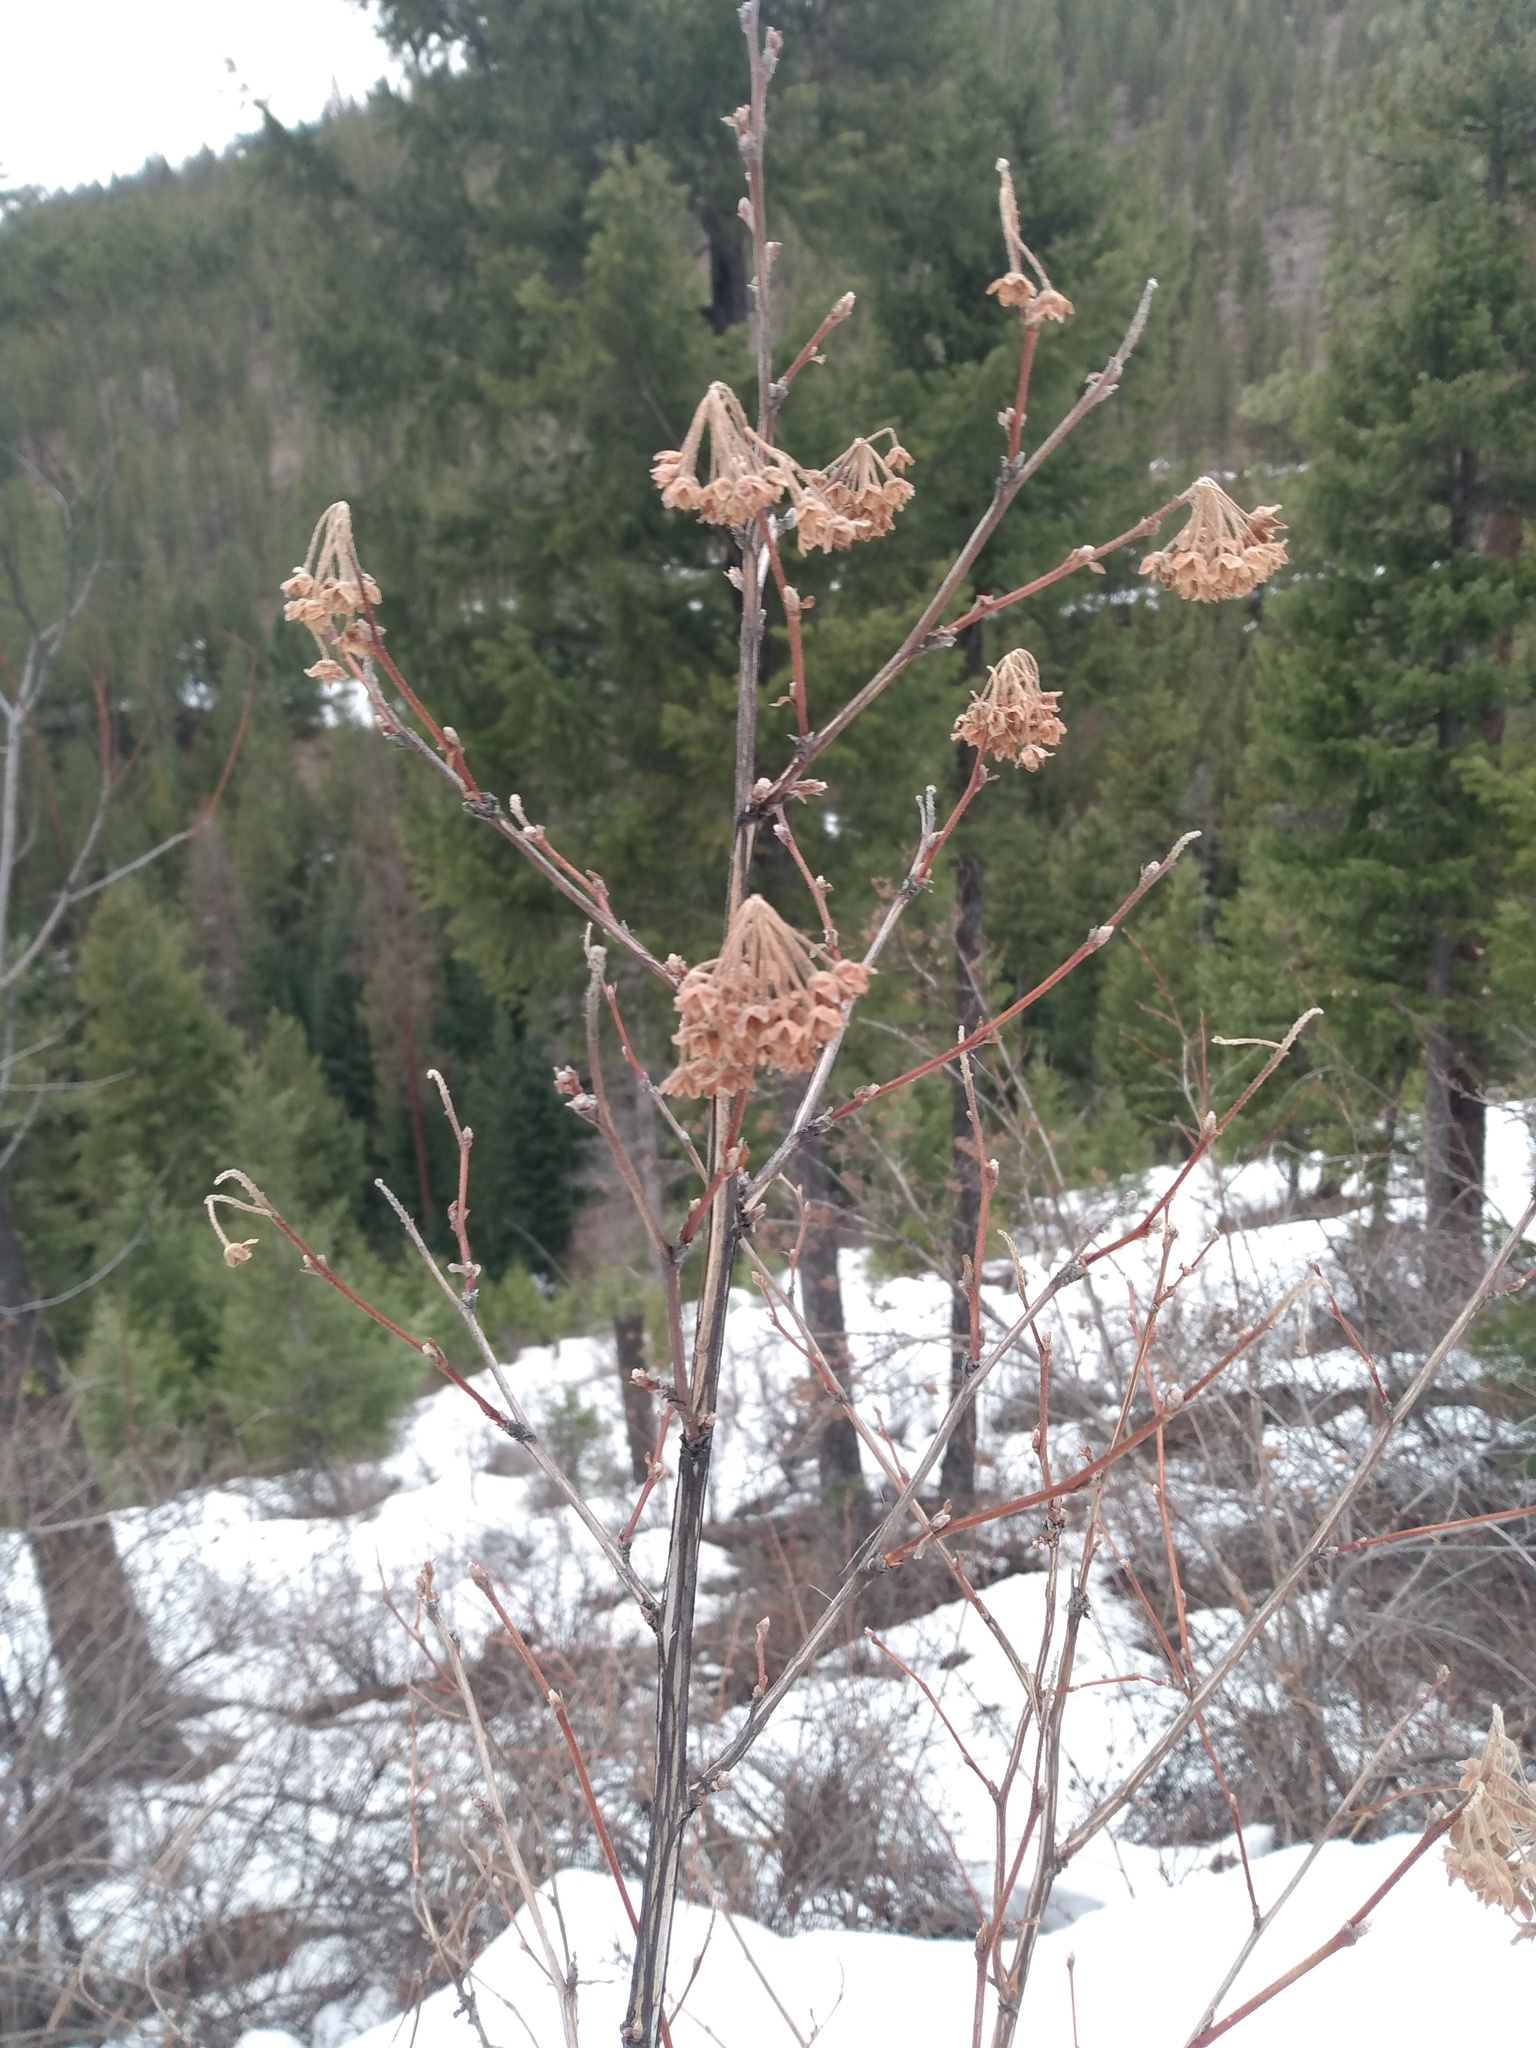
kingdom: Plantae
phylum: Tracheophyta
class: Magnoliopsida
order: Rosales
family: Rosaceae
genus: Physocarpus
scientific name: Physocarpus malvaceus
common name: Mallow ninebark
